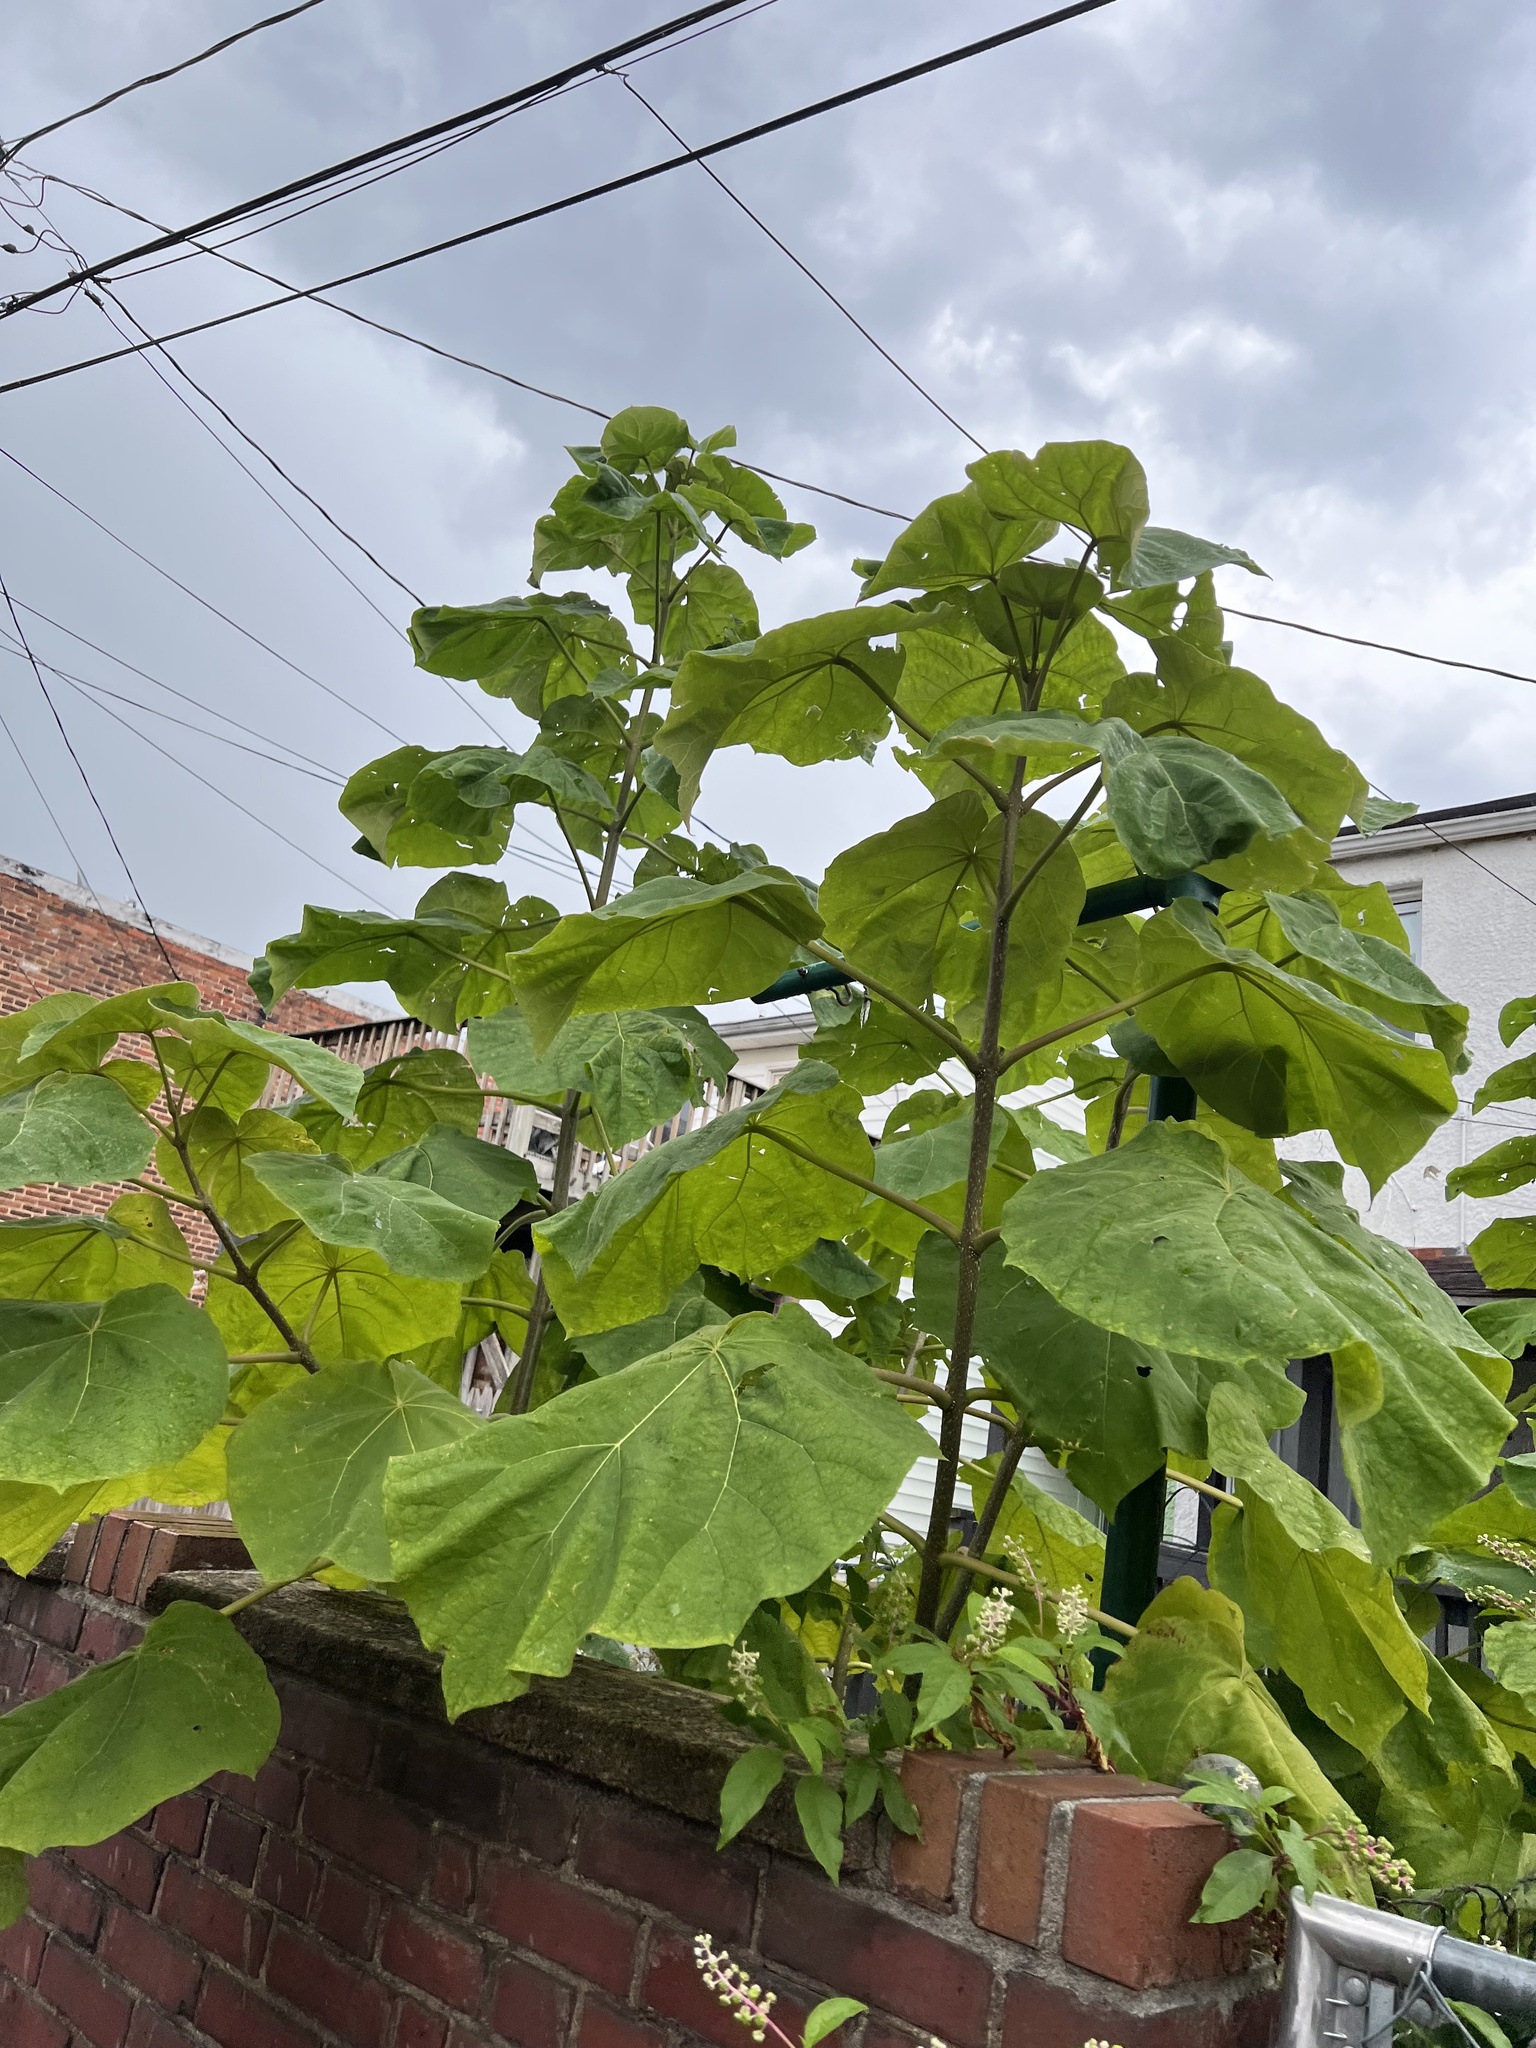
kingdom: Plantae
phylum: Tracheophyta
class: Magnoliopsida
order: Lamiales
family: Paulowniaceae
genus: Paulownia
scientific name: Paulownia tomentosa
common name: Foxglove-tree
